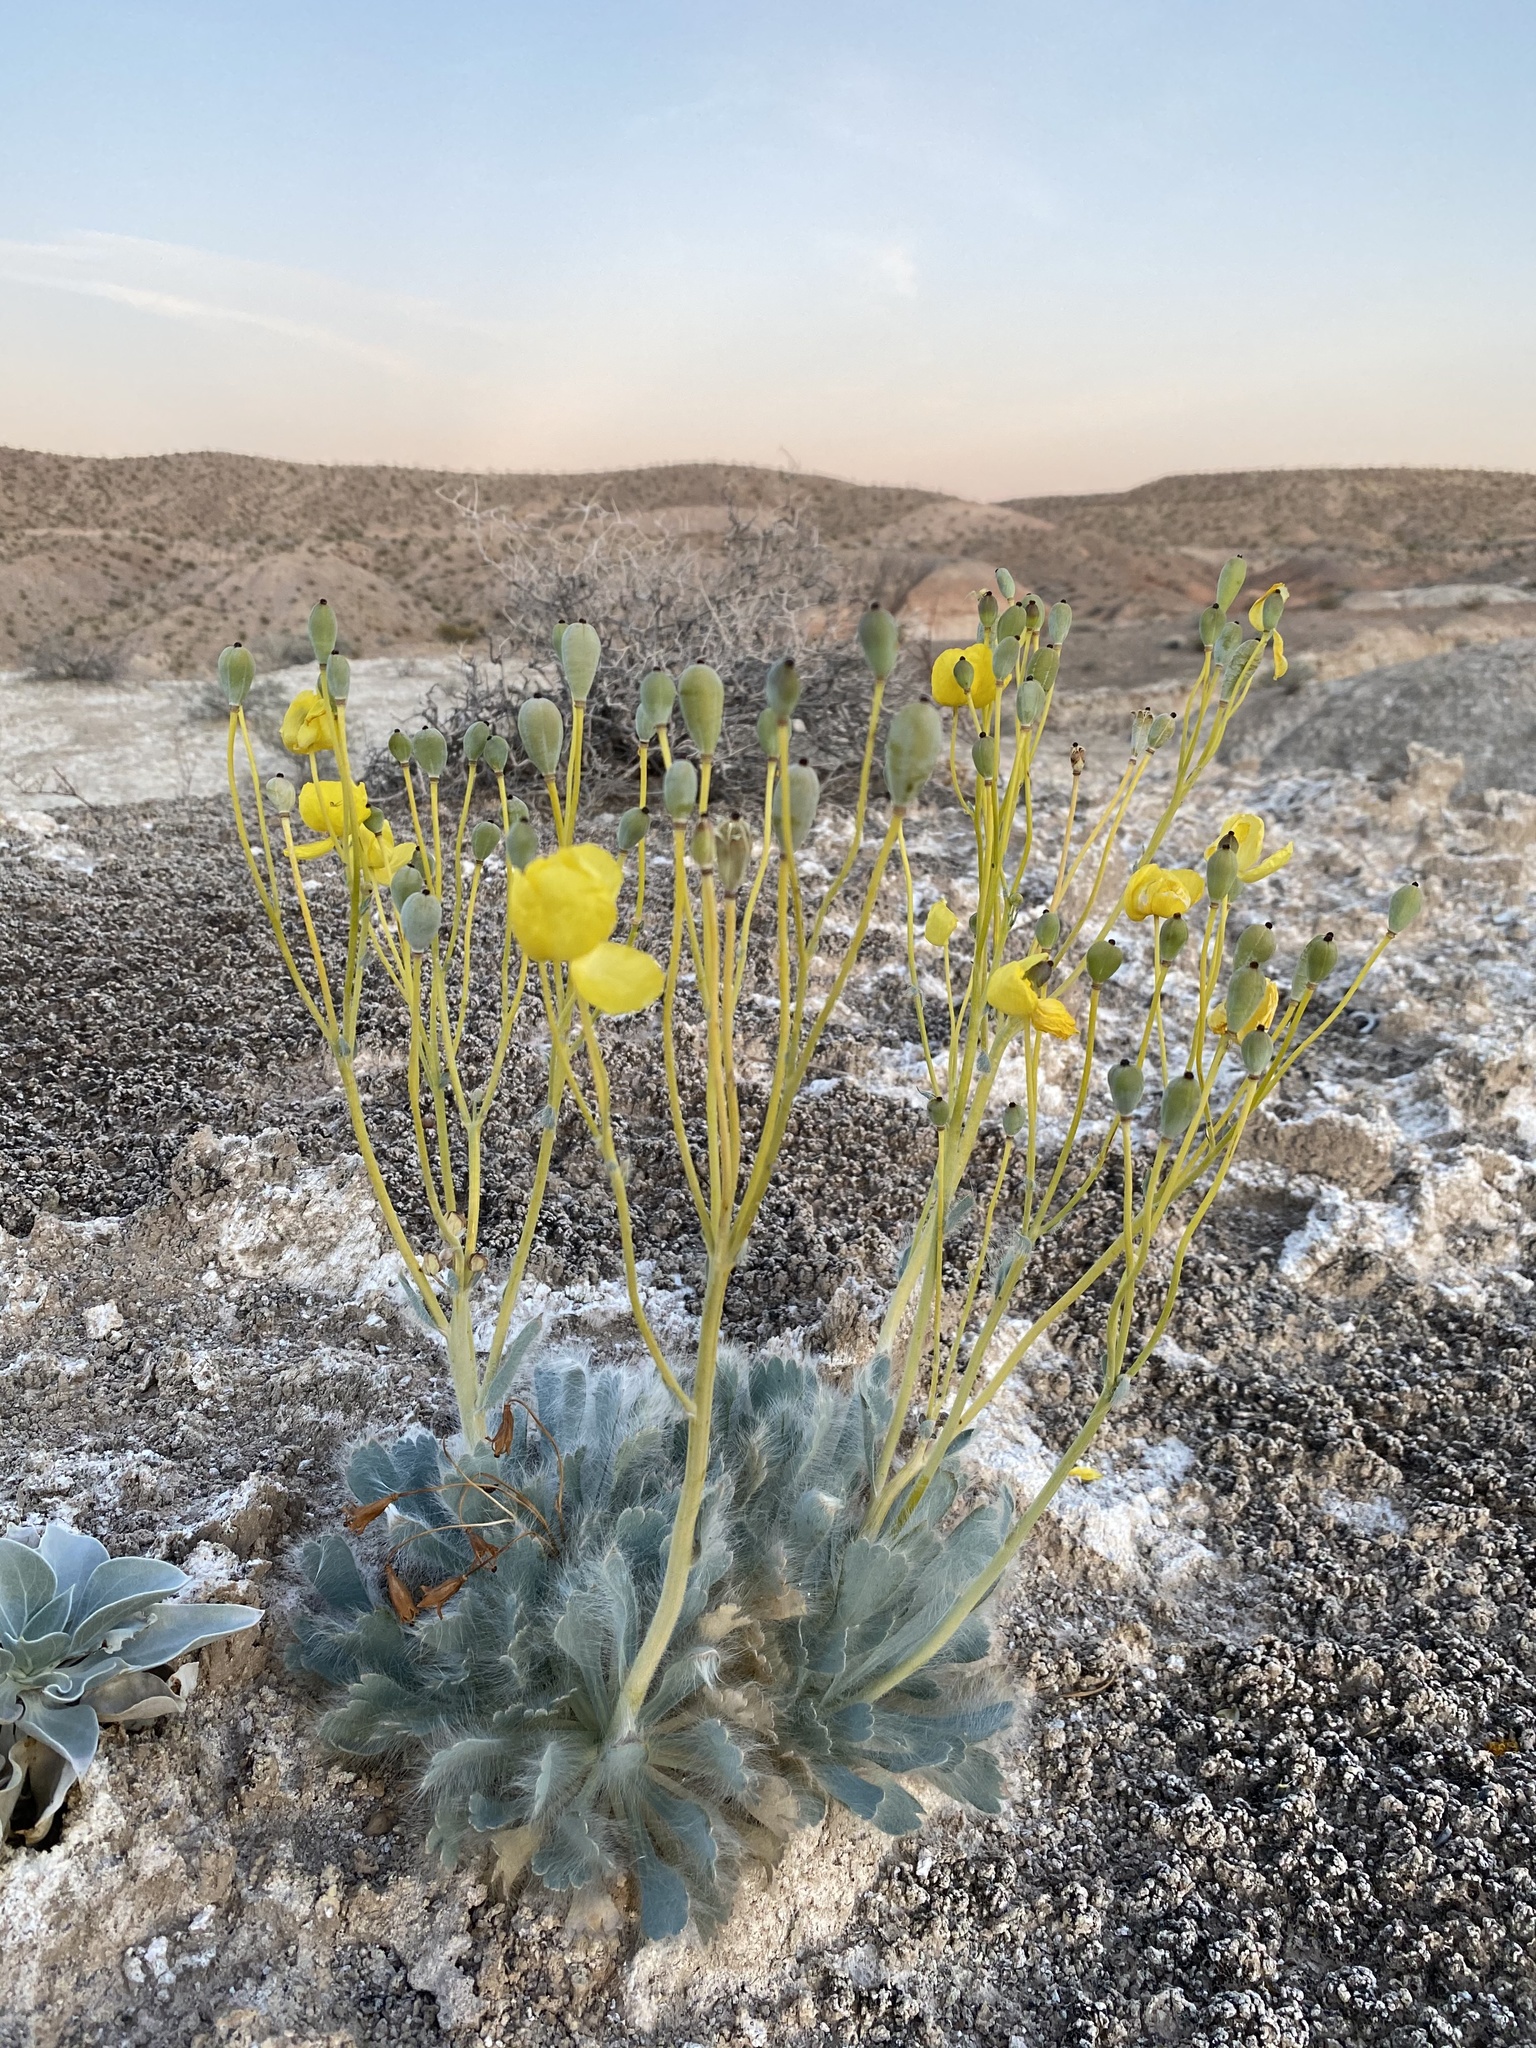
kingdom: Plantae
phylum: Tracheophyta
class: Magnoliopsida
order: Ranunculales
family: Papaveraceae
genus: Arctomecon
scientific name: Arctomecon californicum
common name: Golden bearclaw-poppy
